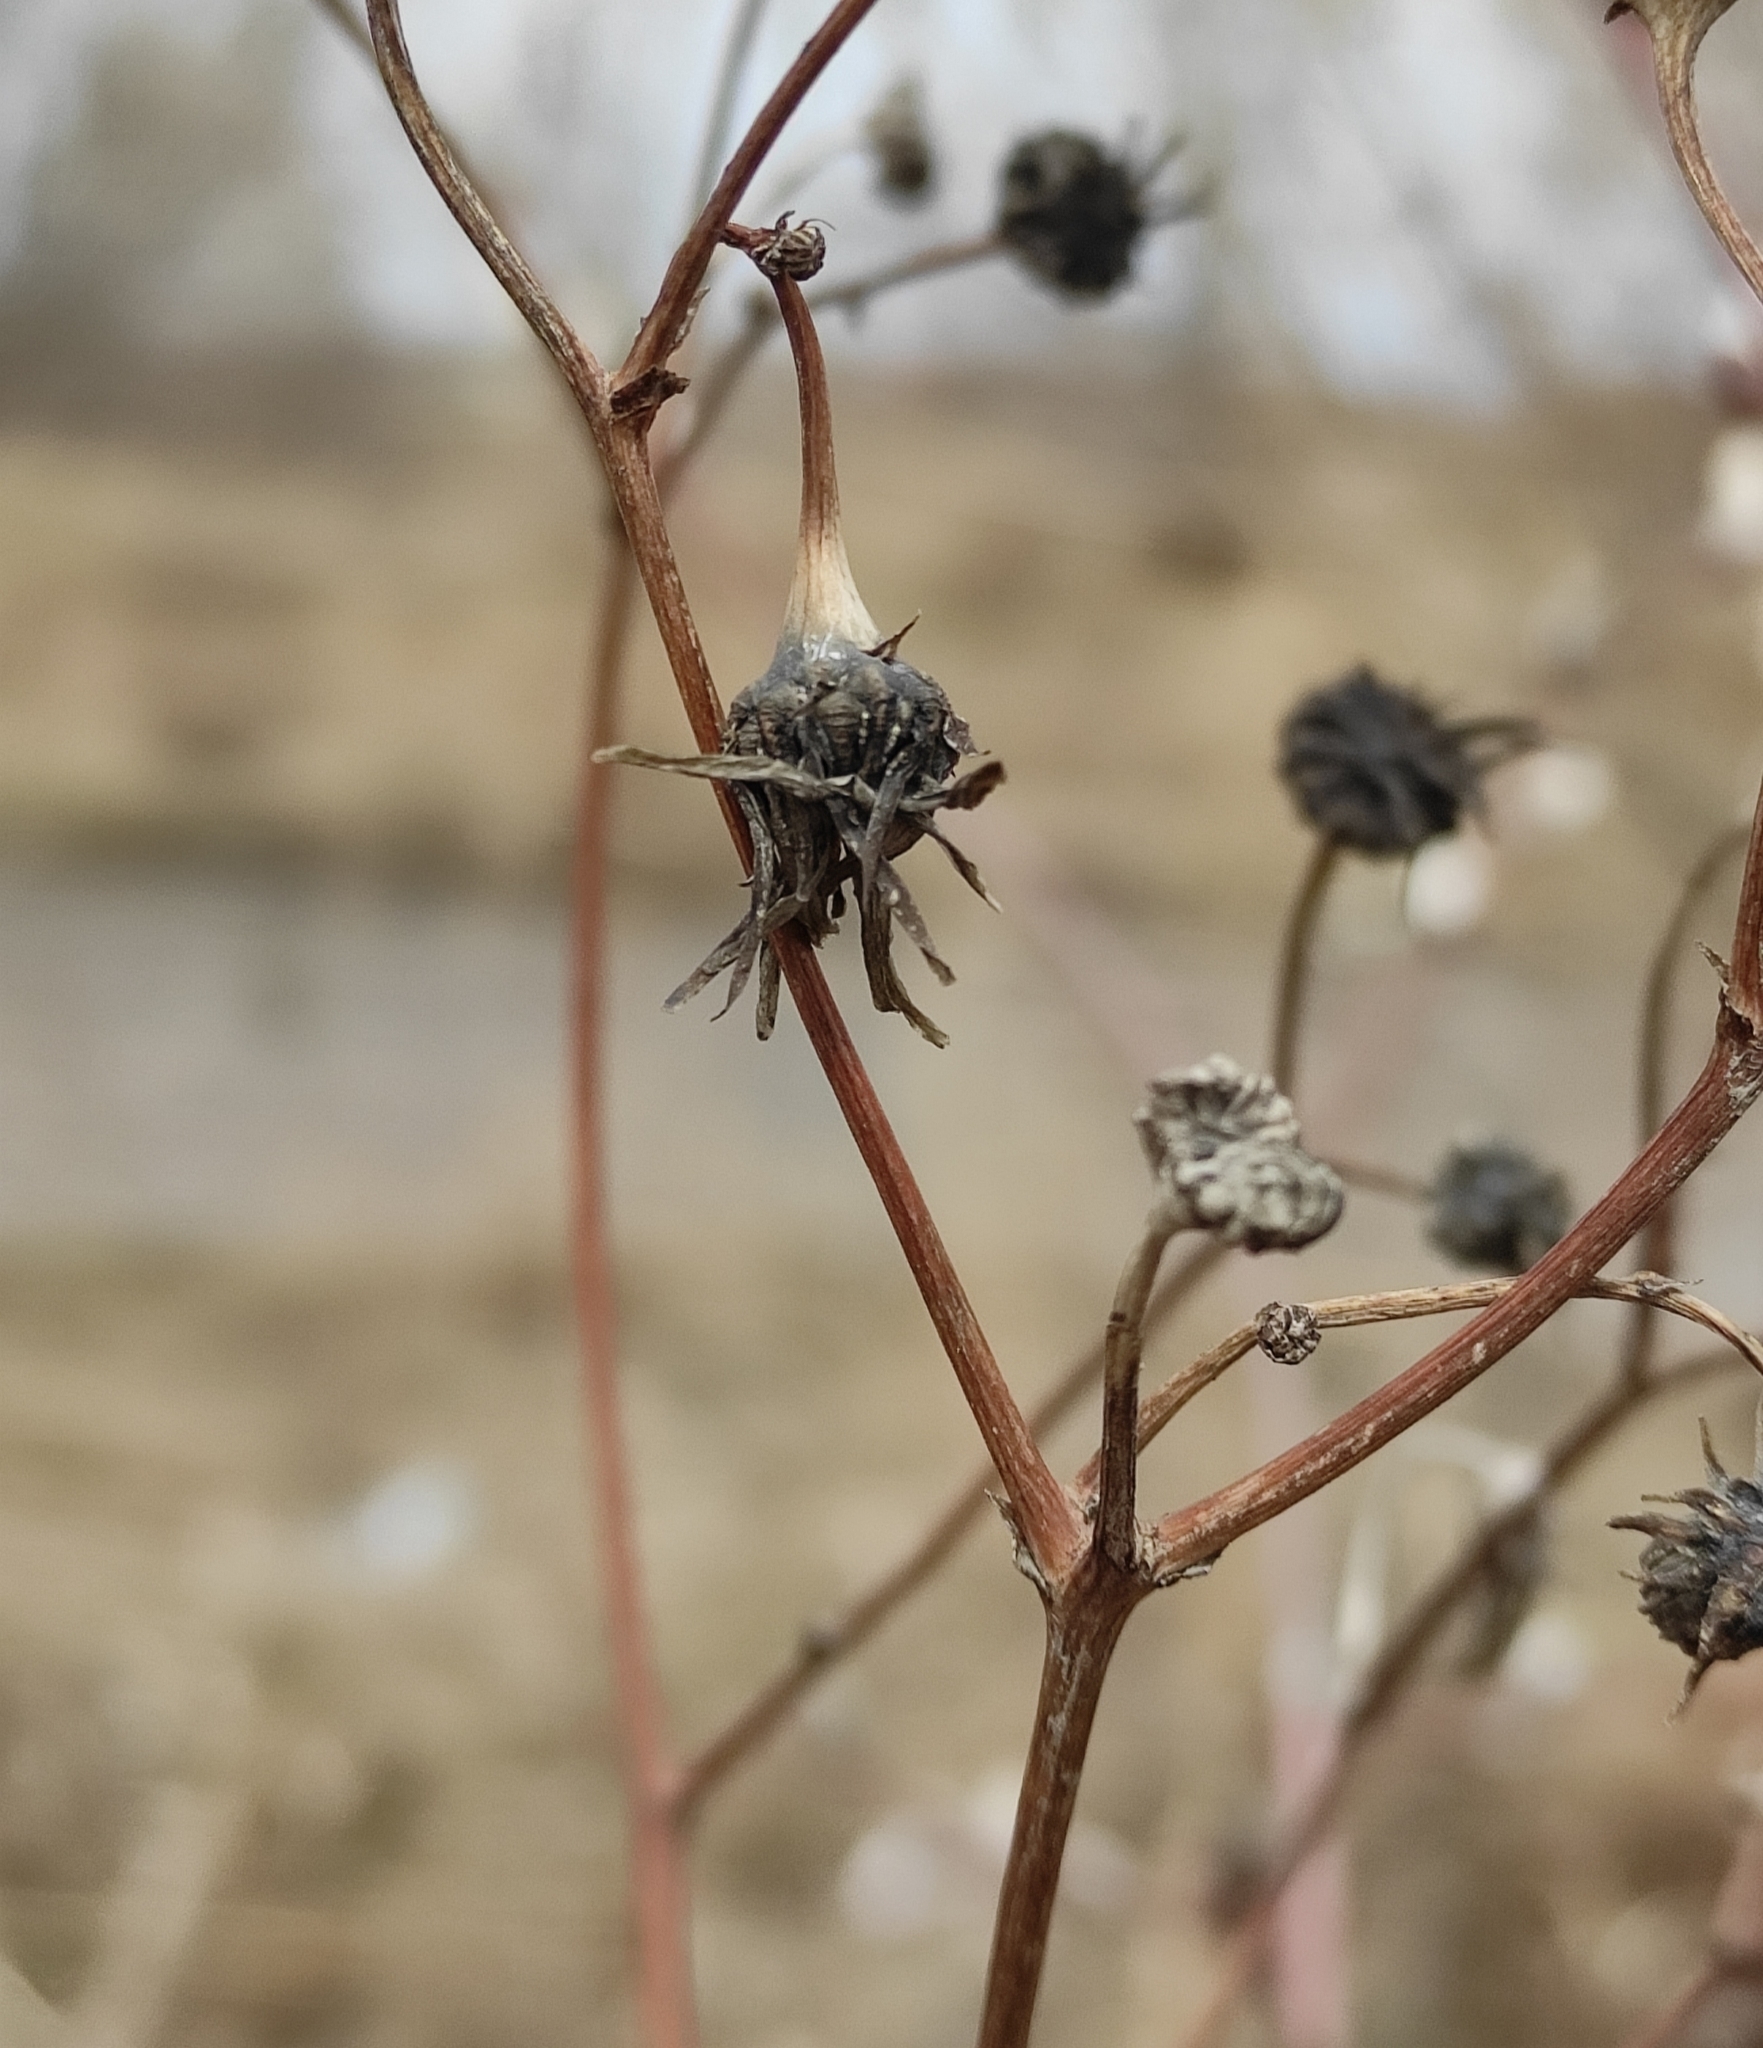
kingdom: Plantae
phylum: Tracheophyta
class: Magnoliopsida
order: Asterales
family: Asteraceae
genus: Sonchus
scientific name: Sonchus arvensis
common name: Perennial sow-thistle
